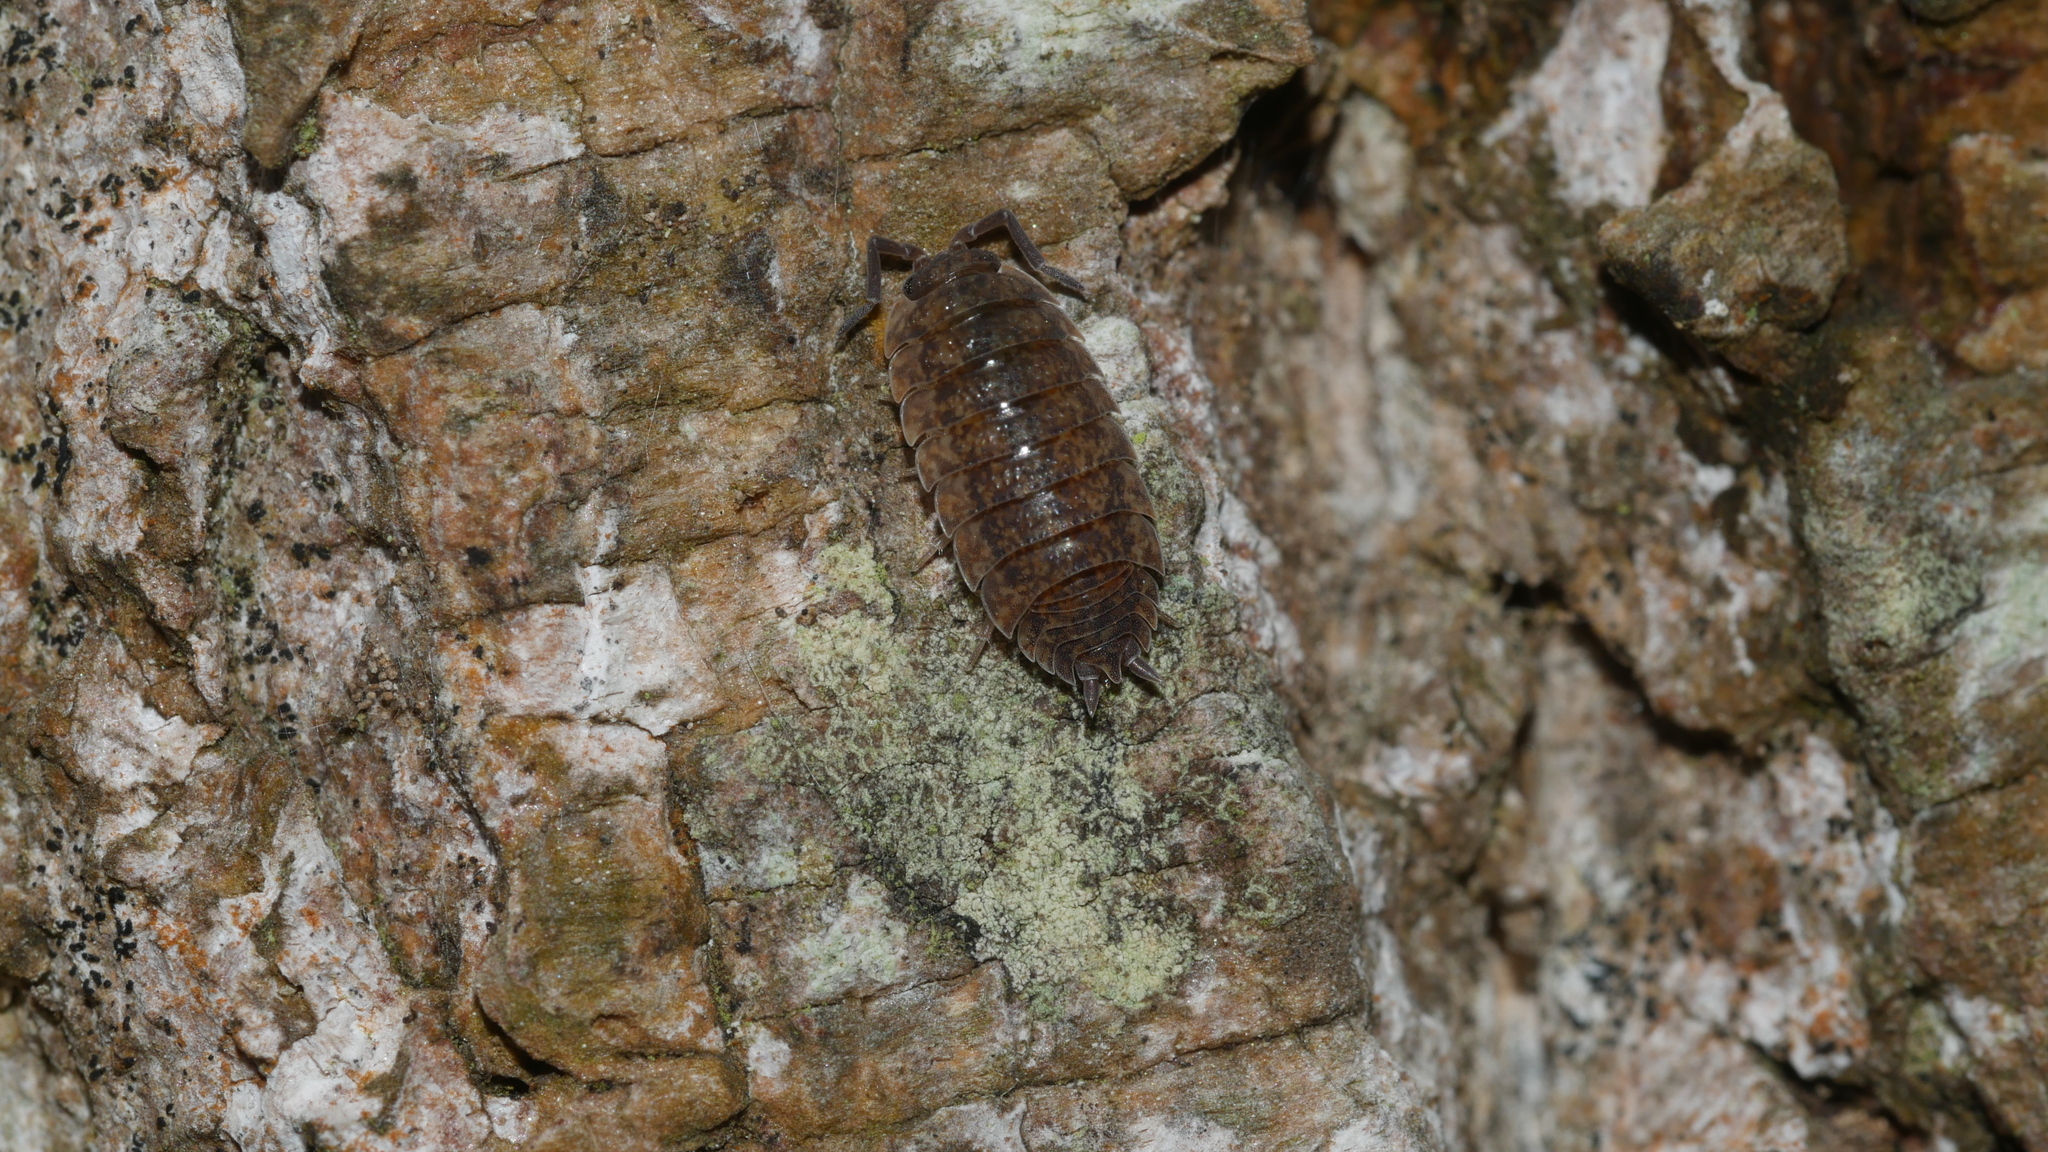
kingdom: Animalia
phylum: Arthropoda
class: Malacostraca
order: Isopoda
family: Porcellionidae
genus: Porcellio
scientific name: Porcellio scaber
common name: Common rough woodlouse
